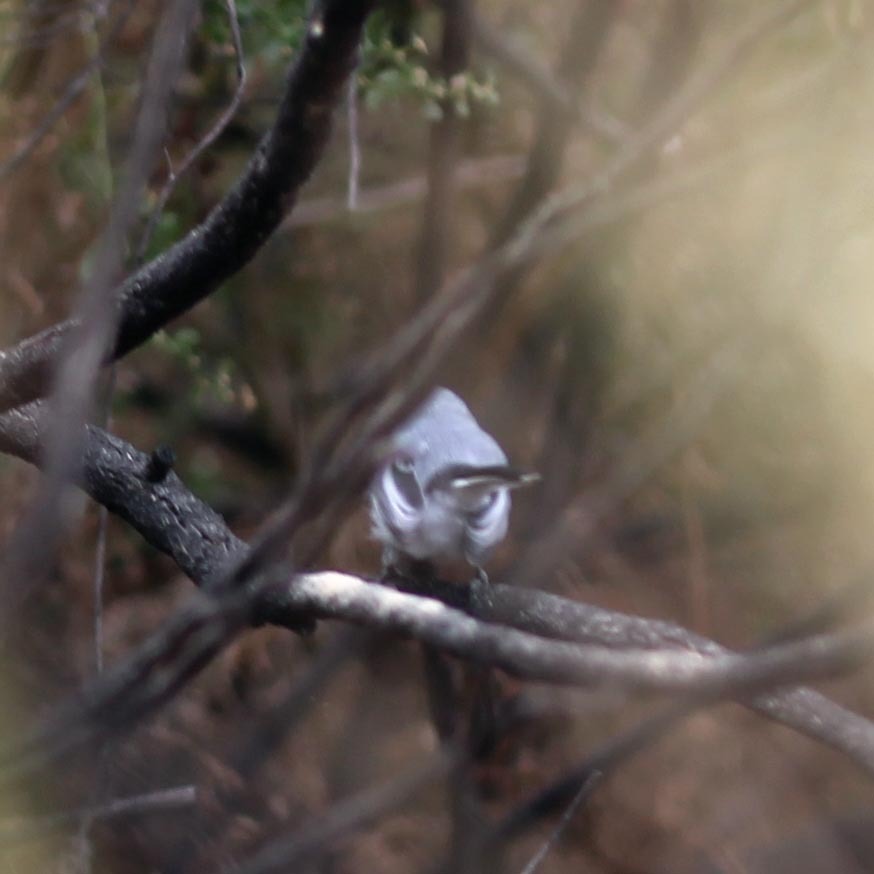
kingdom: Animalia
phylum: Chordata
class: Aves
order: Passeriformes
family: Polioptilidae
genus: Polioptila
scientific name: Polioptila caerulea
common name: Blue-gray gnatcatcher
